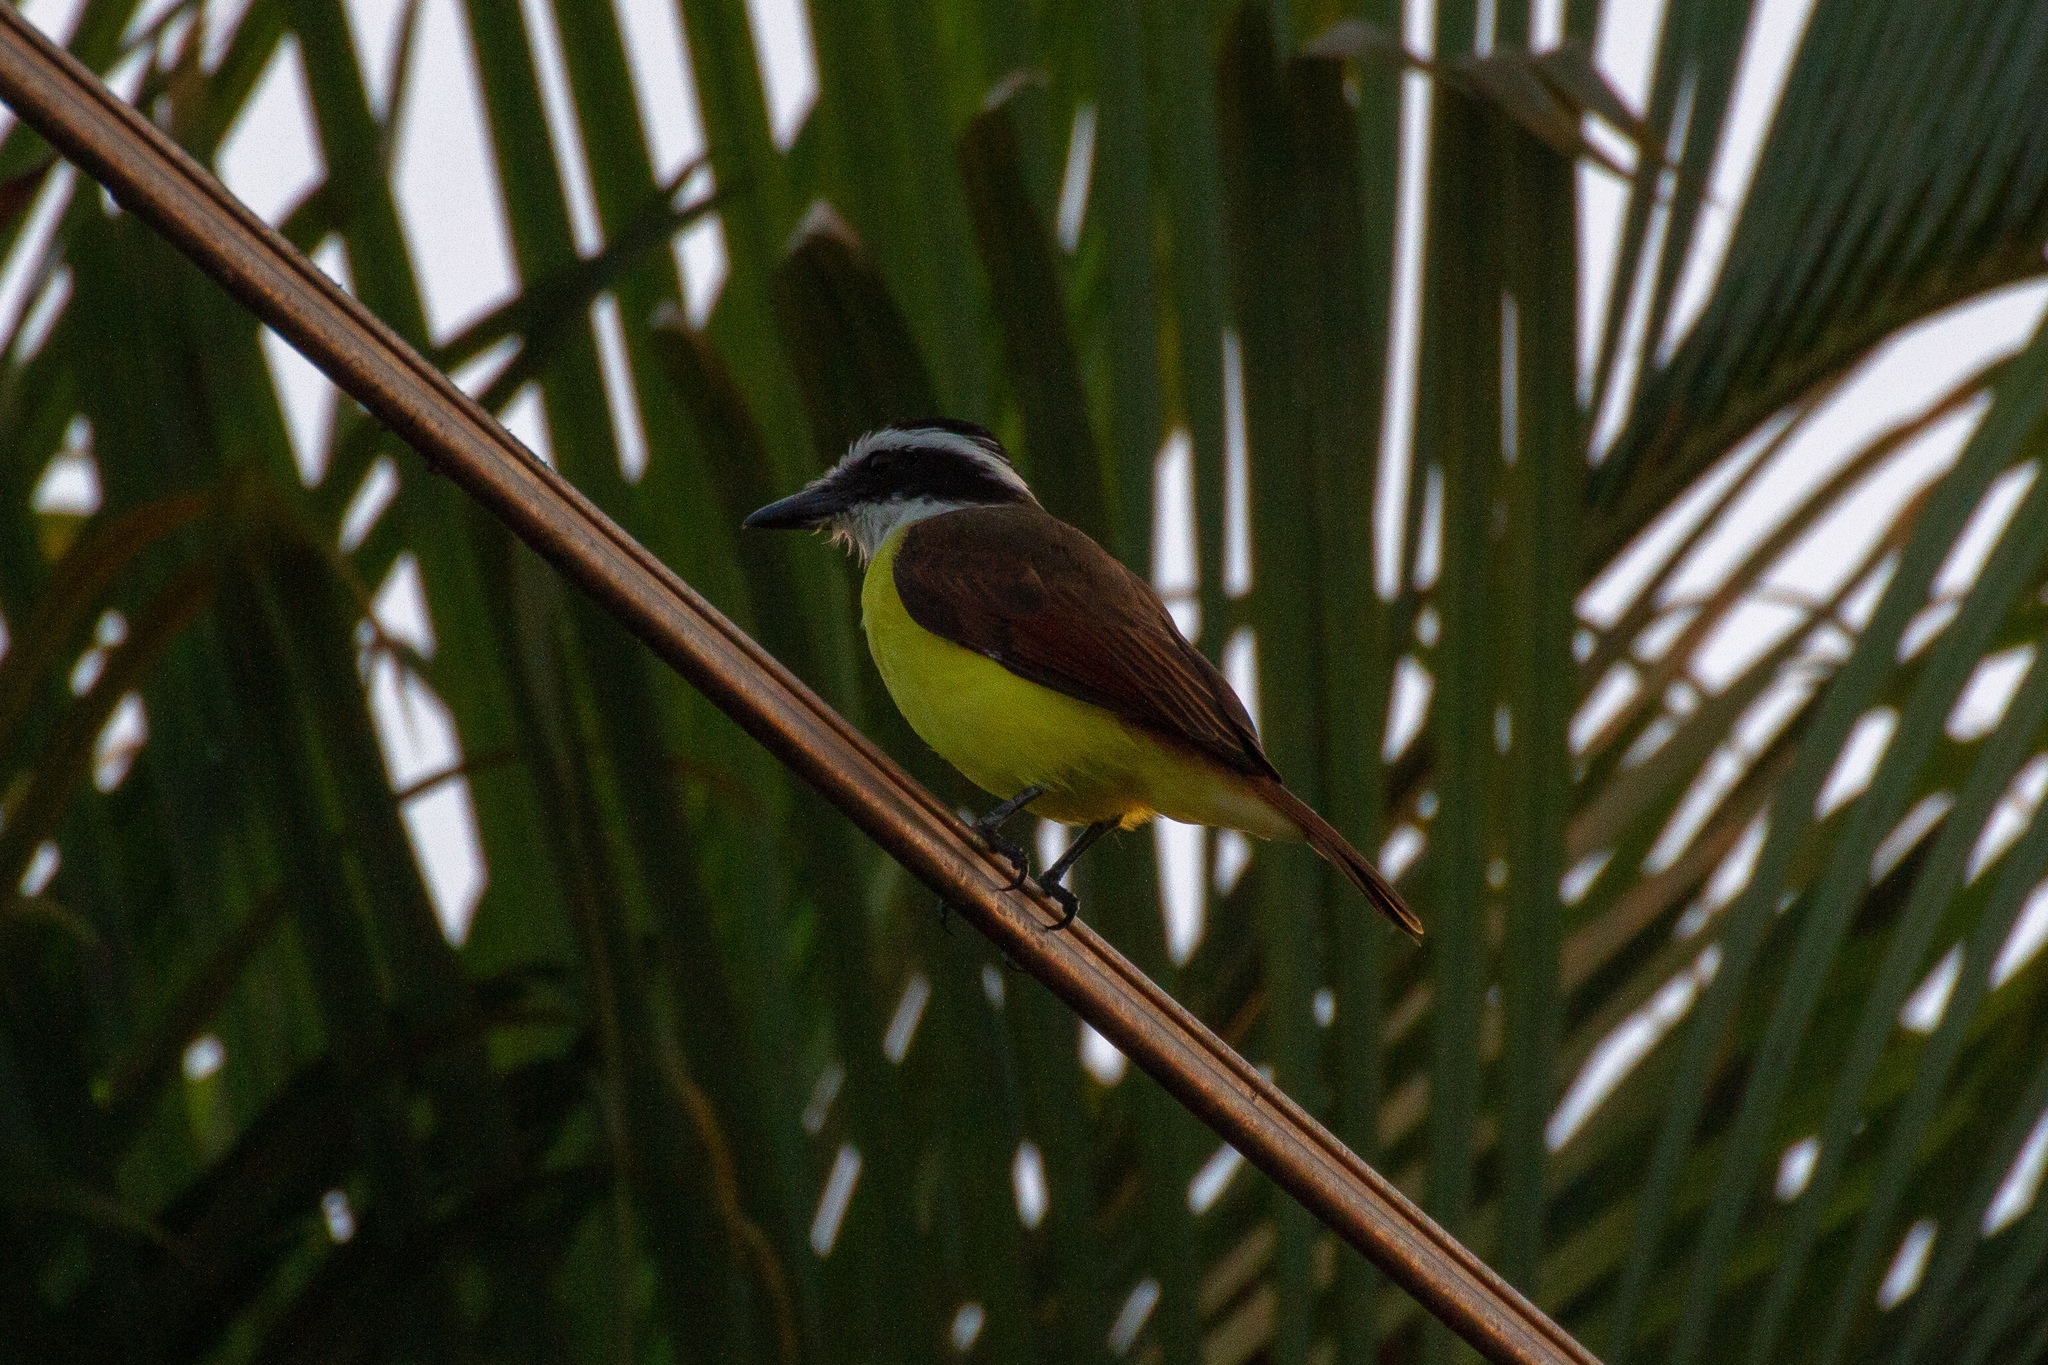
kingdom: Animalia
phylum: Chordata
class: Aves
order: Passeriformes
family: Tyrannidae
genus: Pitangus
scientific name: Pitangus sulphuratus
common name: Great kiskadee
